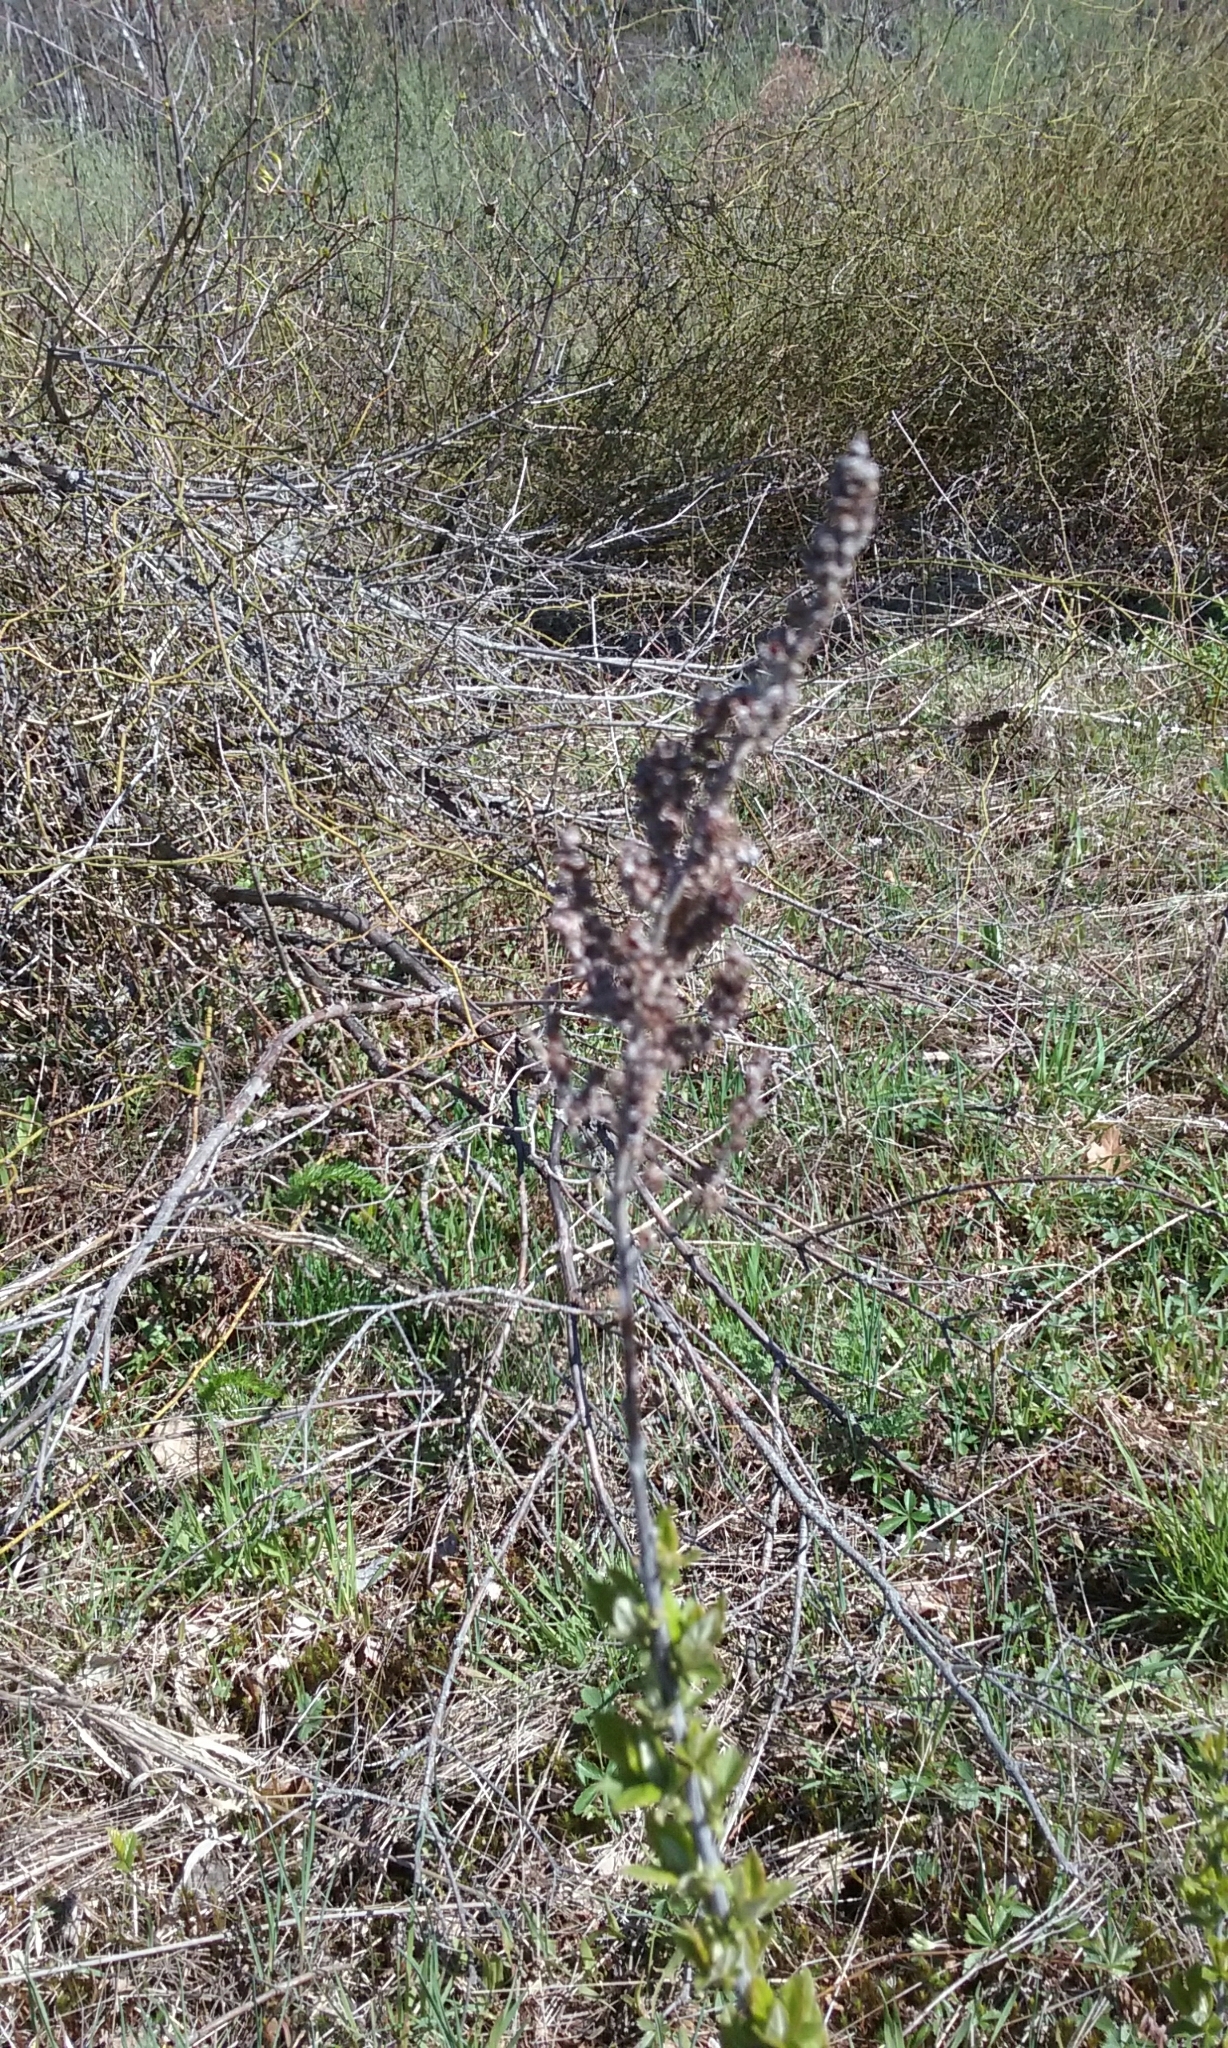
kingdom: Plantae
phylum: Tracheophyta
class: Magnoliopsida
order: Rosales
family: Rosaceae
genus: Spiraea
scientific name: Spiraea tomentosa
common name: Hardhack
